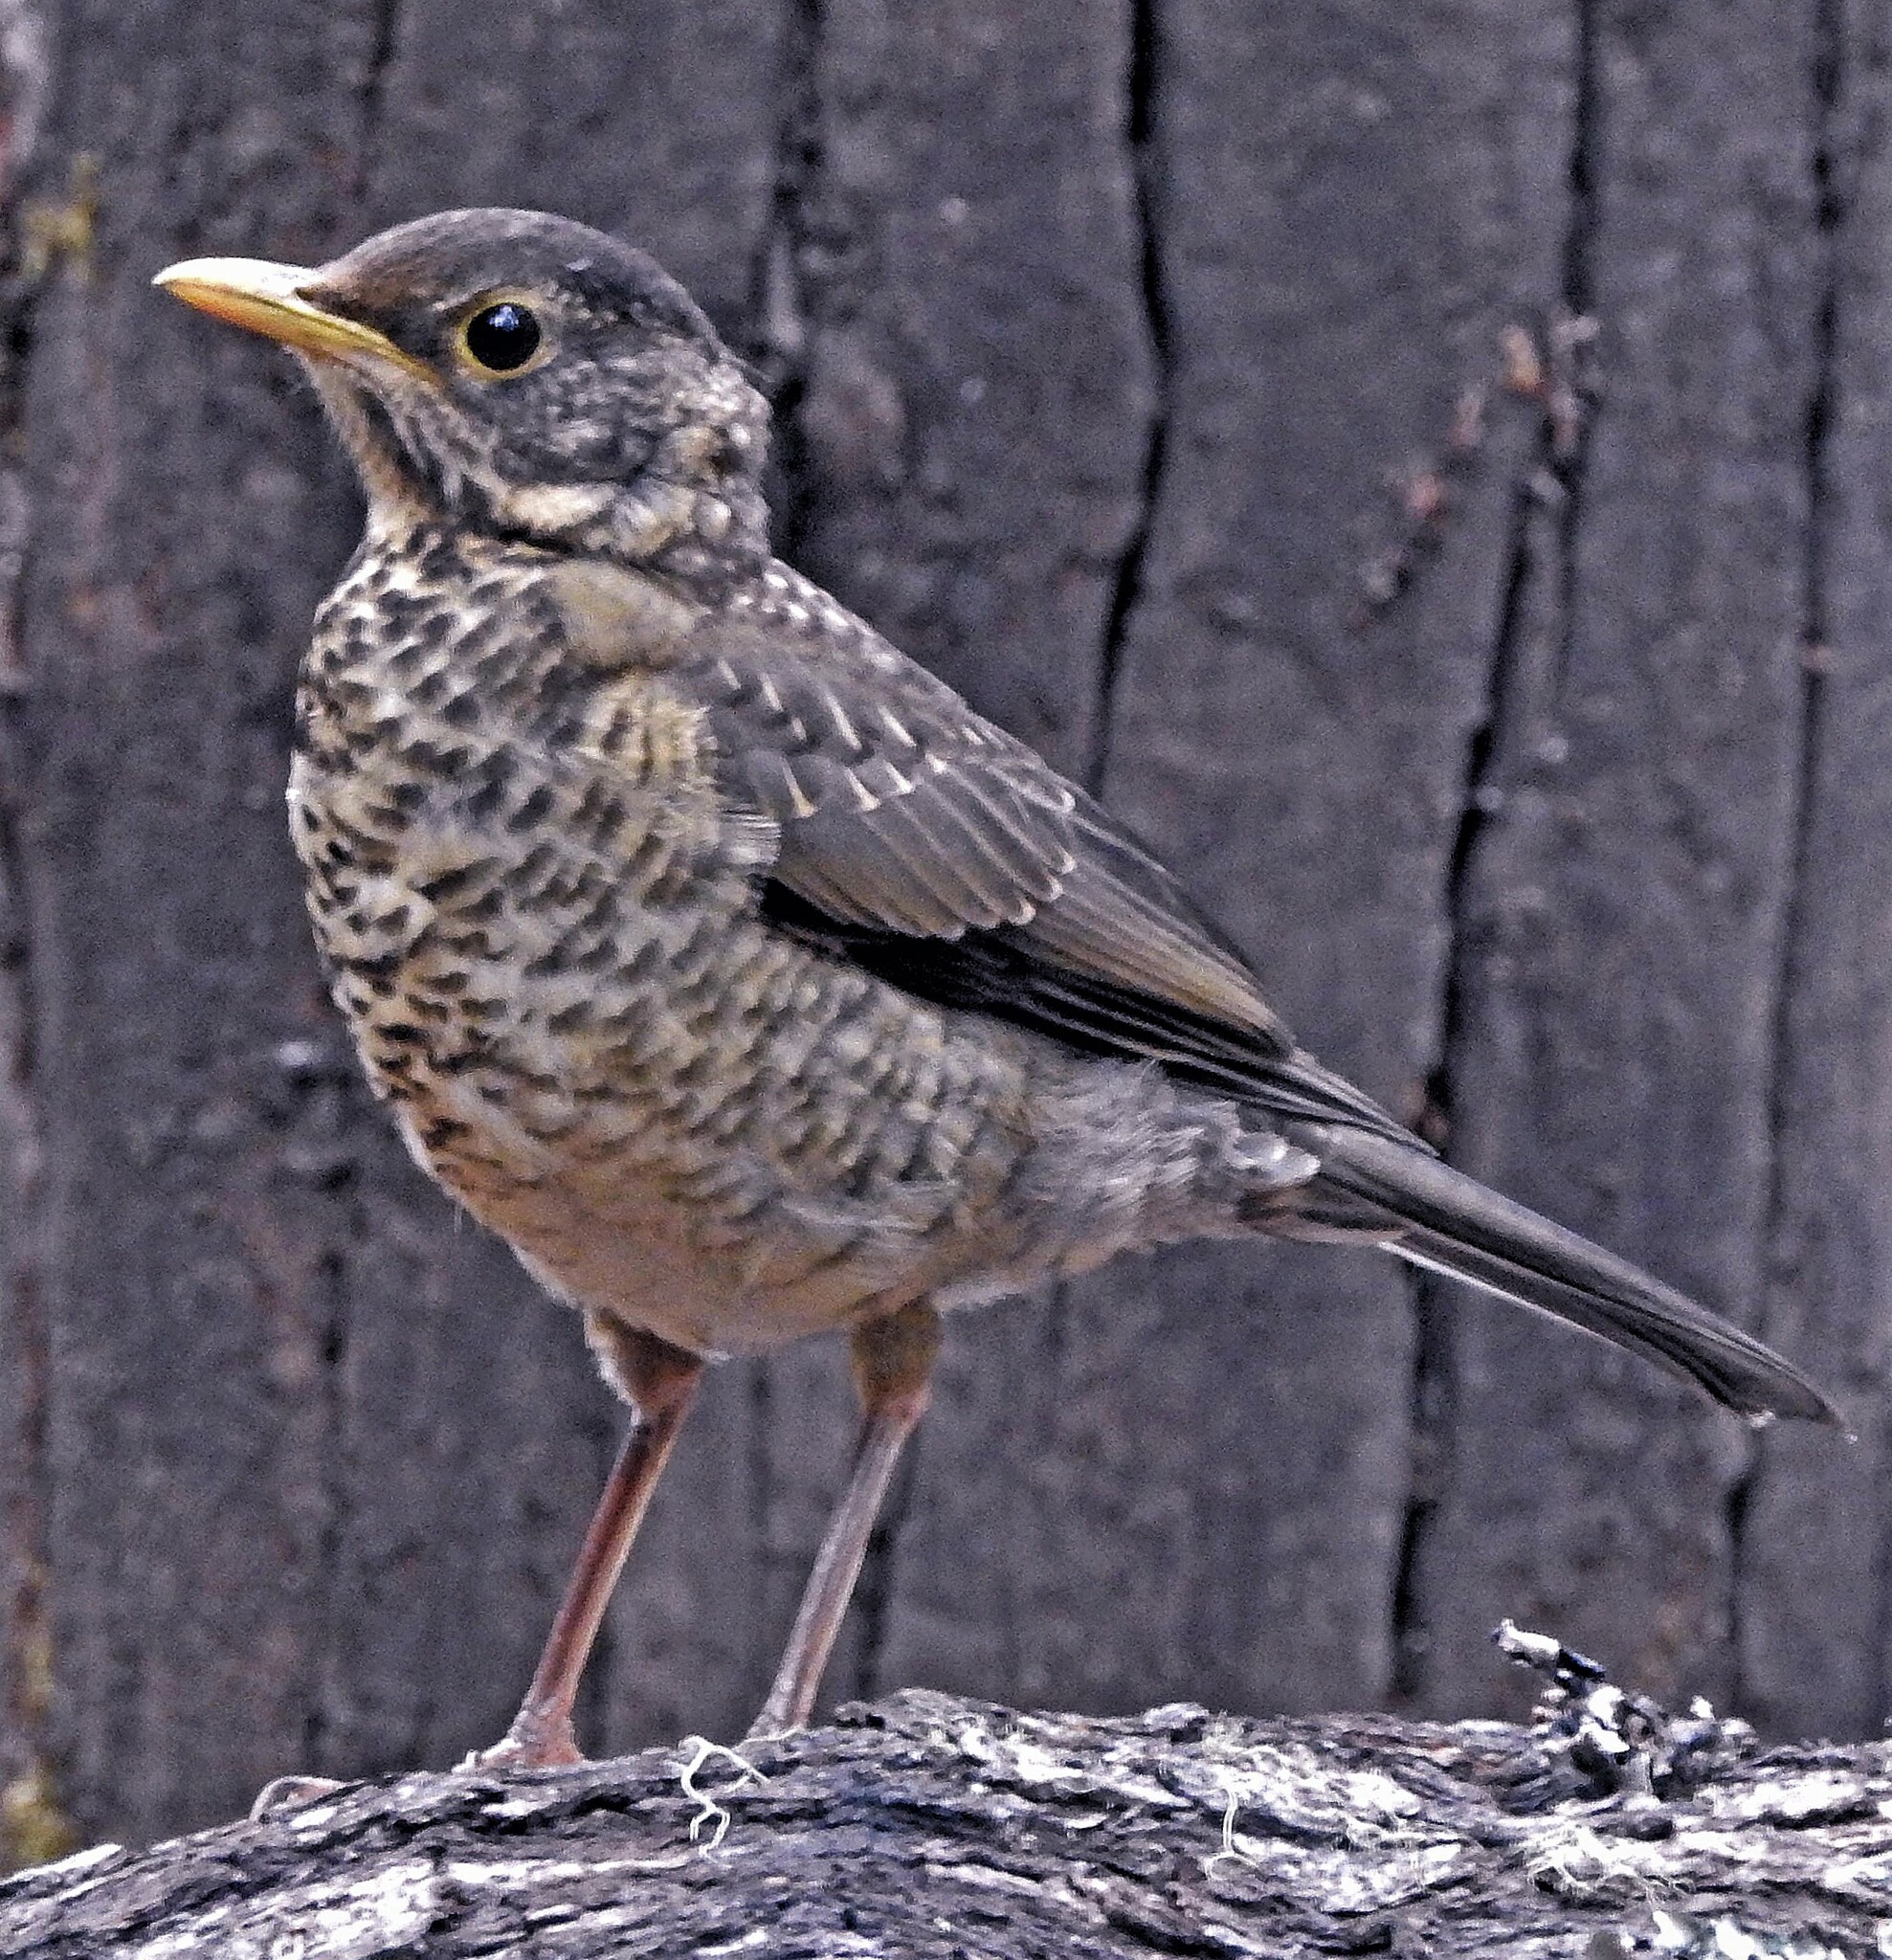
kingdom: Animalia
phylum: Chordata
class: Aves
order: Passeriformes
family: Turdidae
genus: Turdus
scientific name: Turdus falcklandii
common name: Austral thrush
